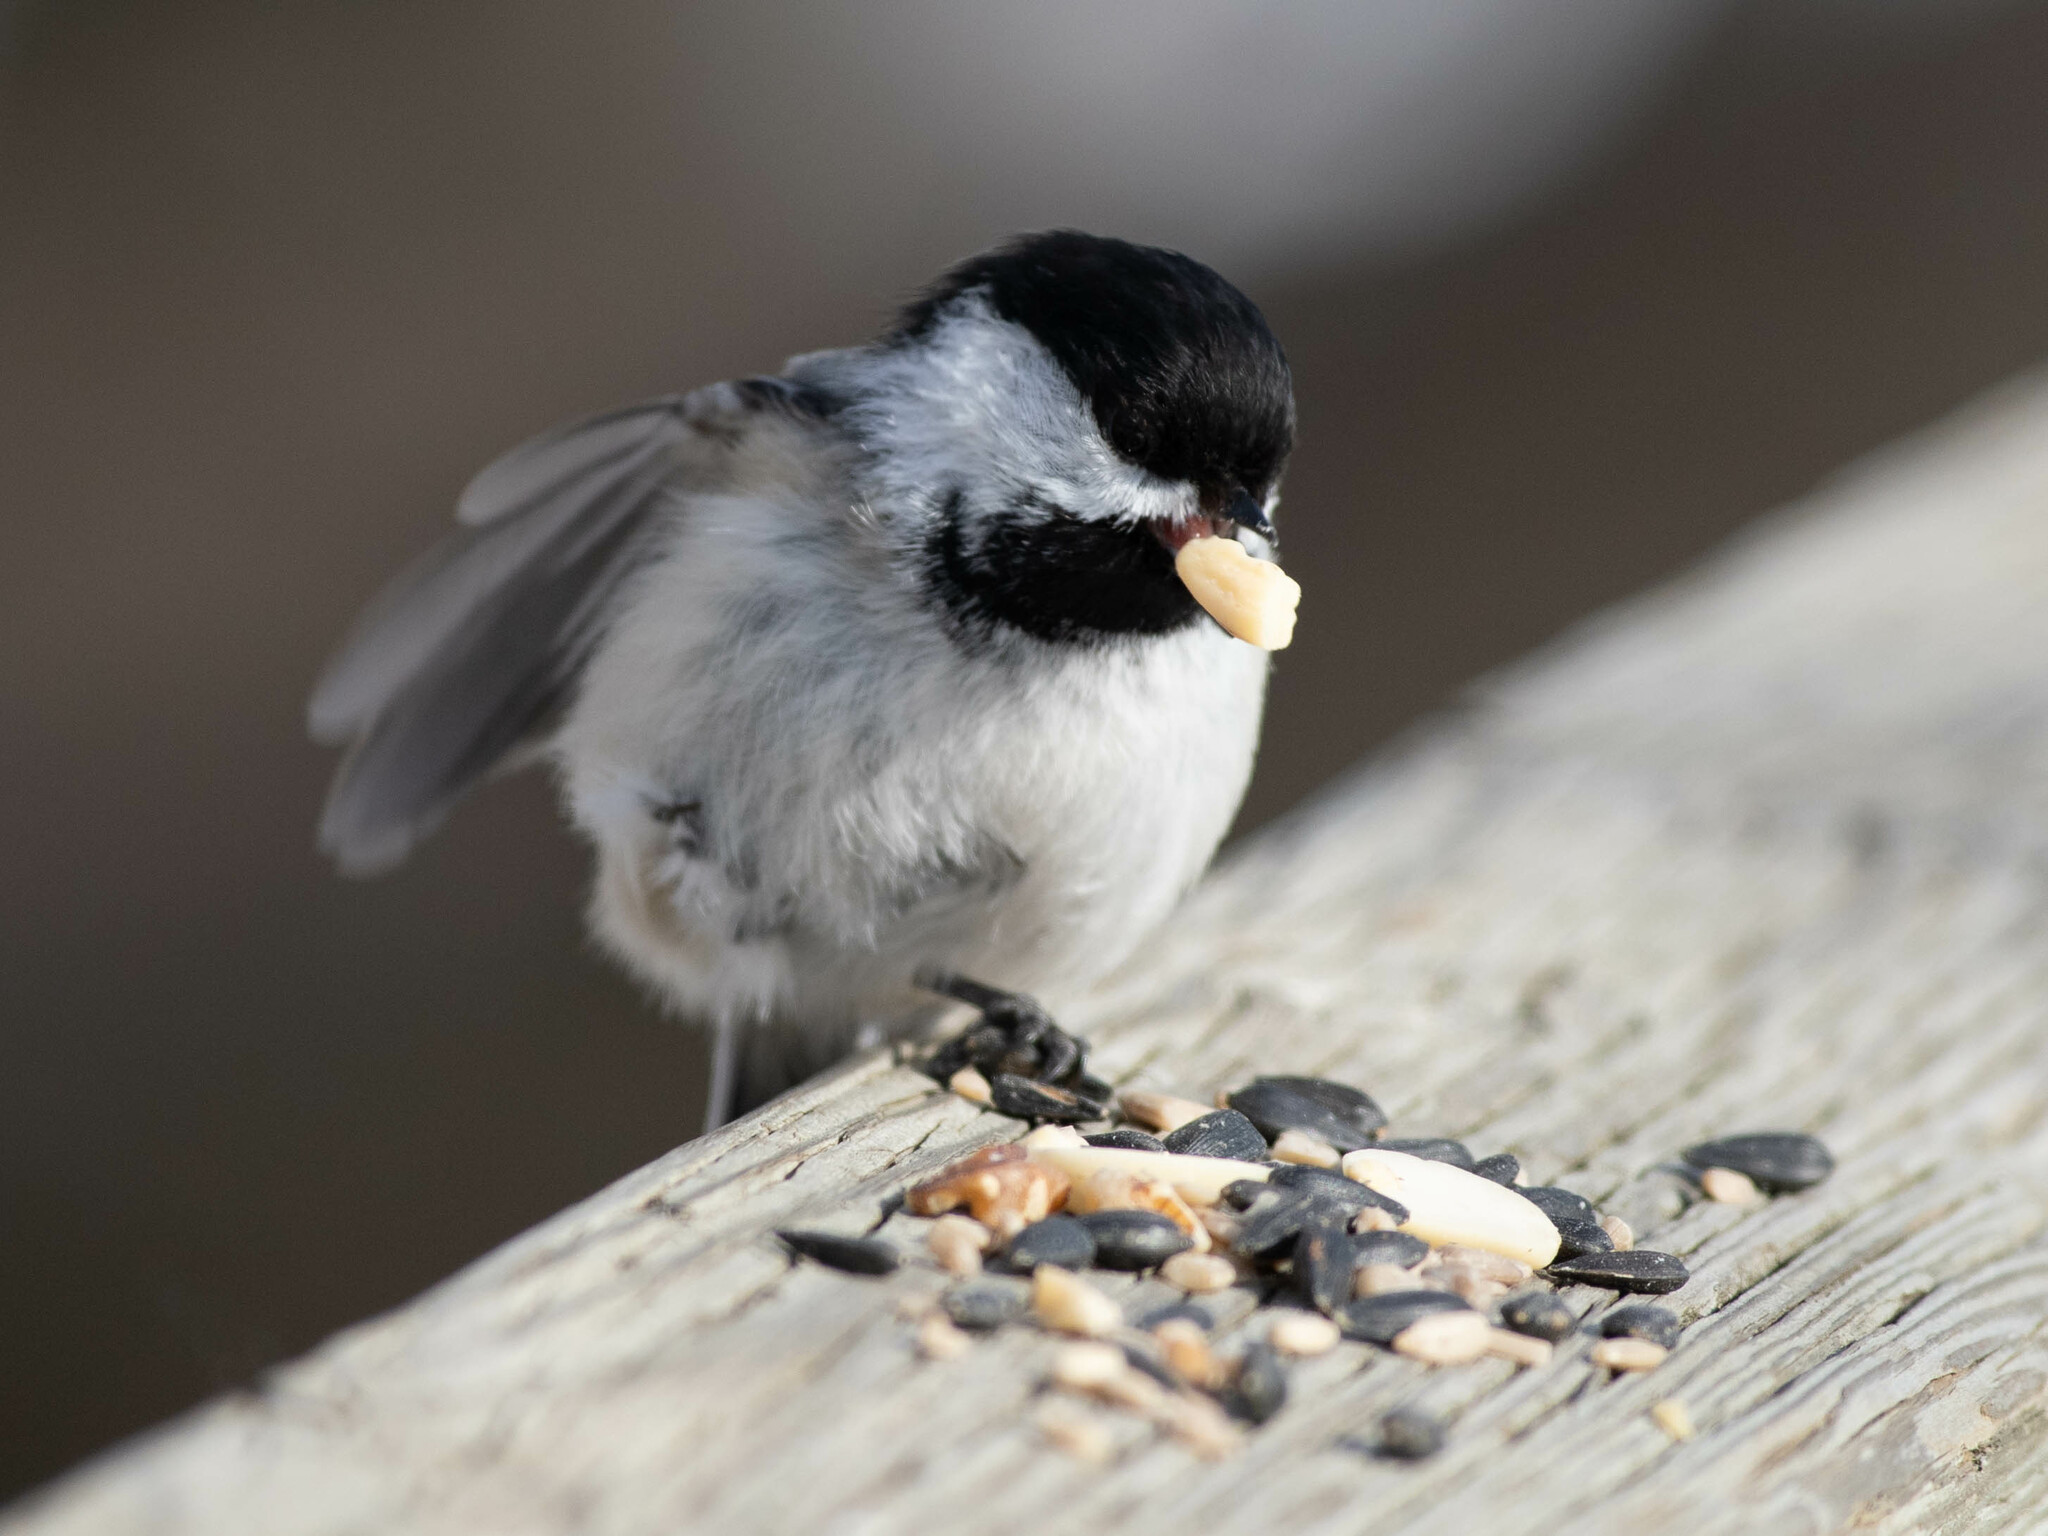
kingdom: Animalia
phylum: Chordata
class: Aves
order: Passeriformes
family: Paridae
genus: Poecile
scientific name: Poecile atricapillus
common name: Black-capped chickadee
